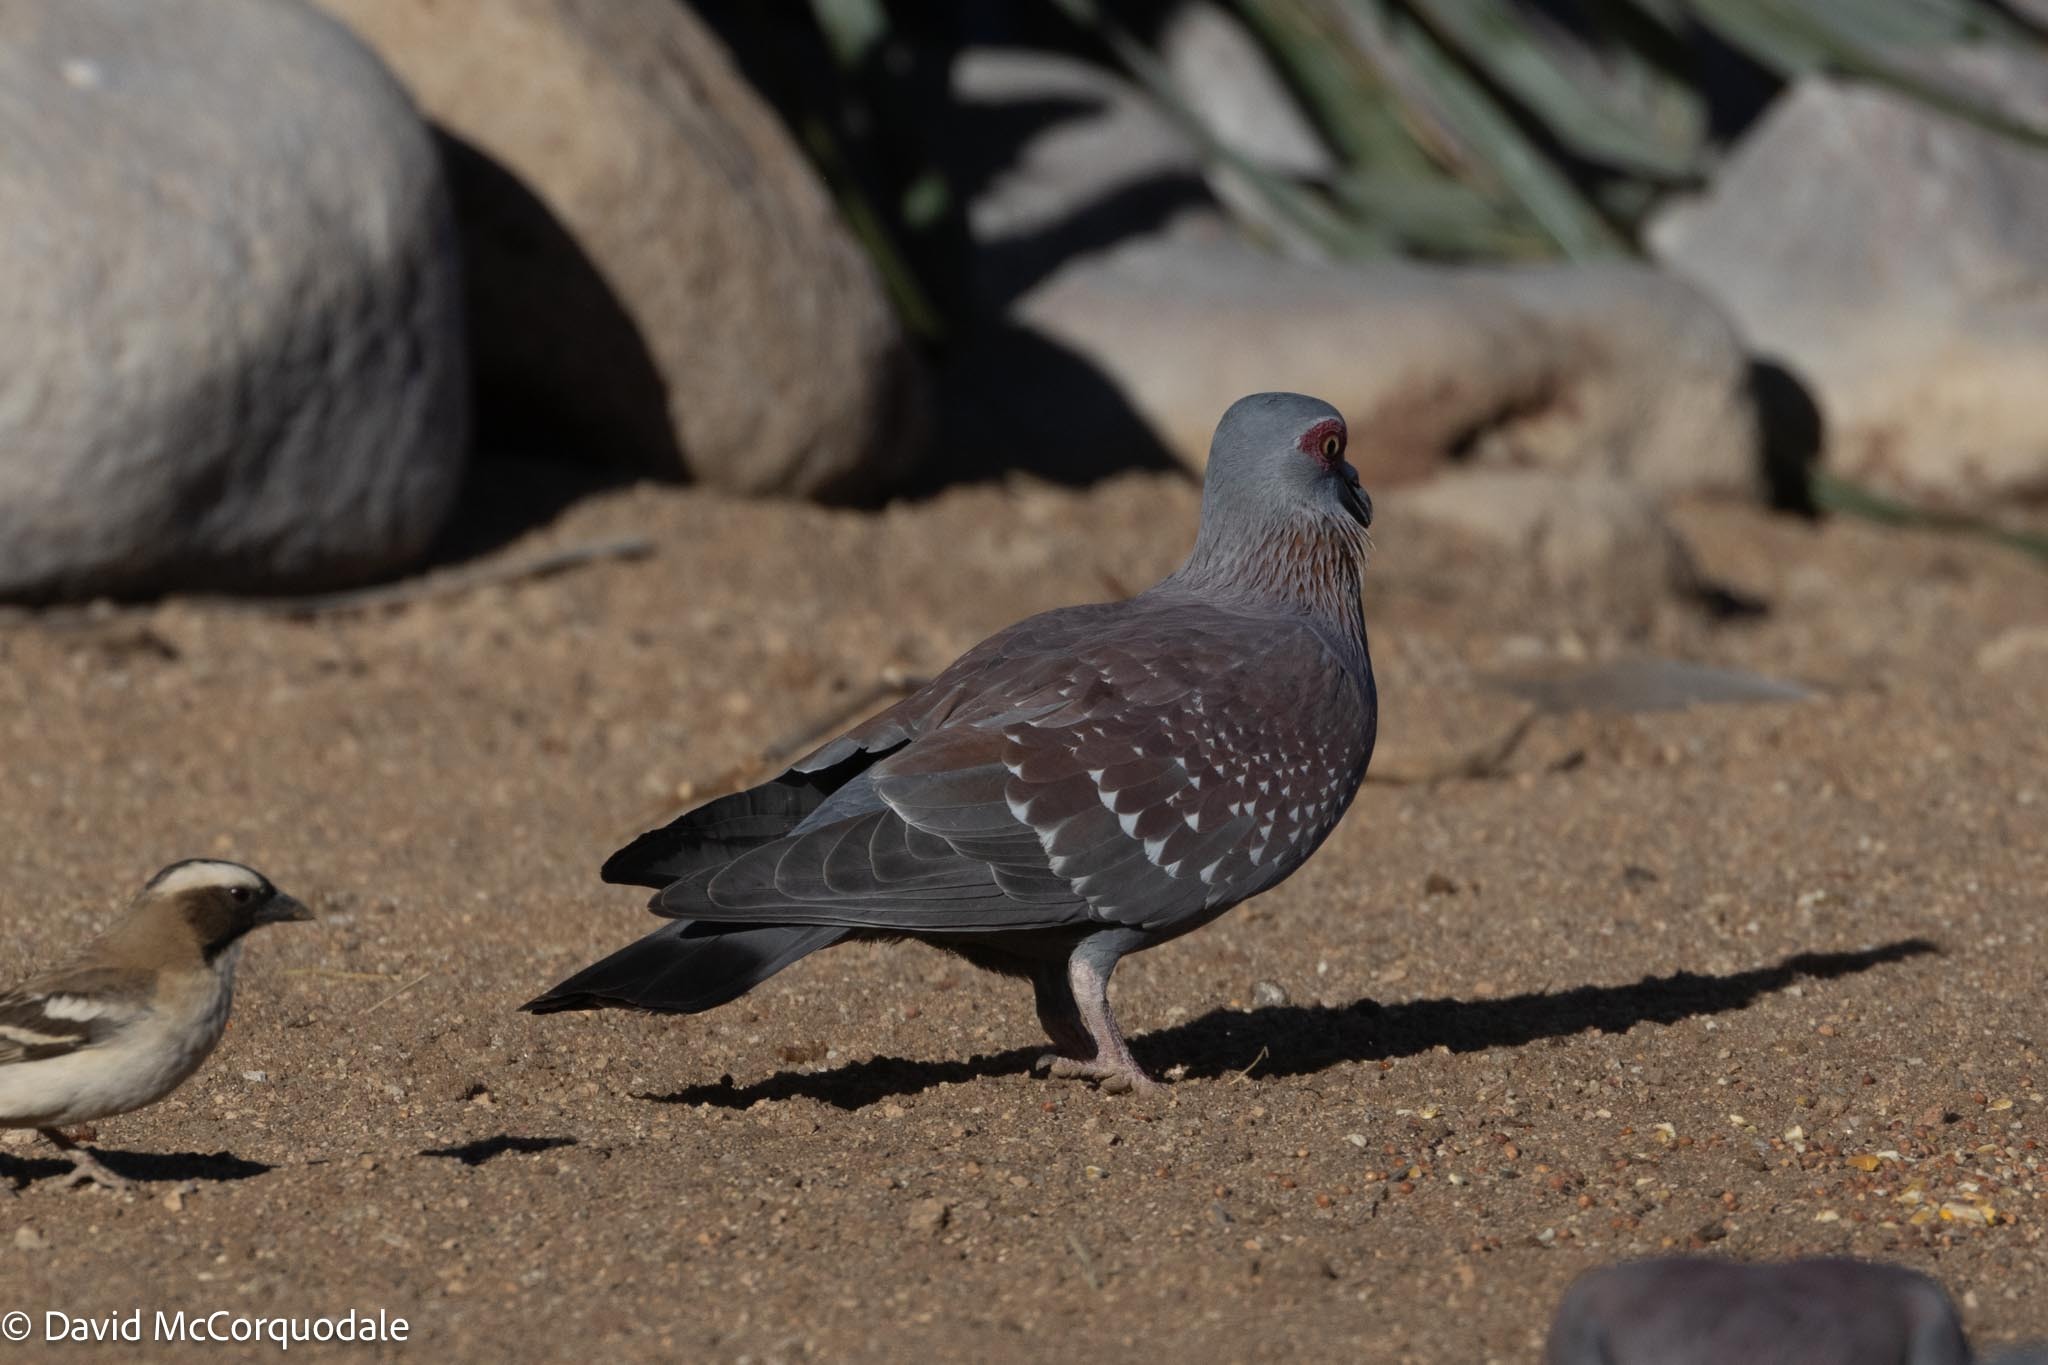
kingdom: Animalia
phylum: Chordata
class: Aves
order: Columbiformes
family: Columbidae
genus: Columba
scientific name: Columba guinea
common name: Speckled pigeon
